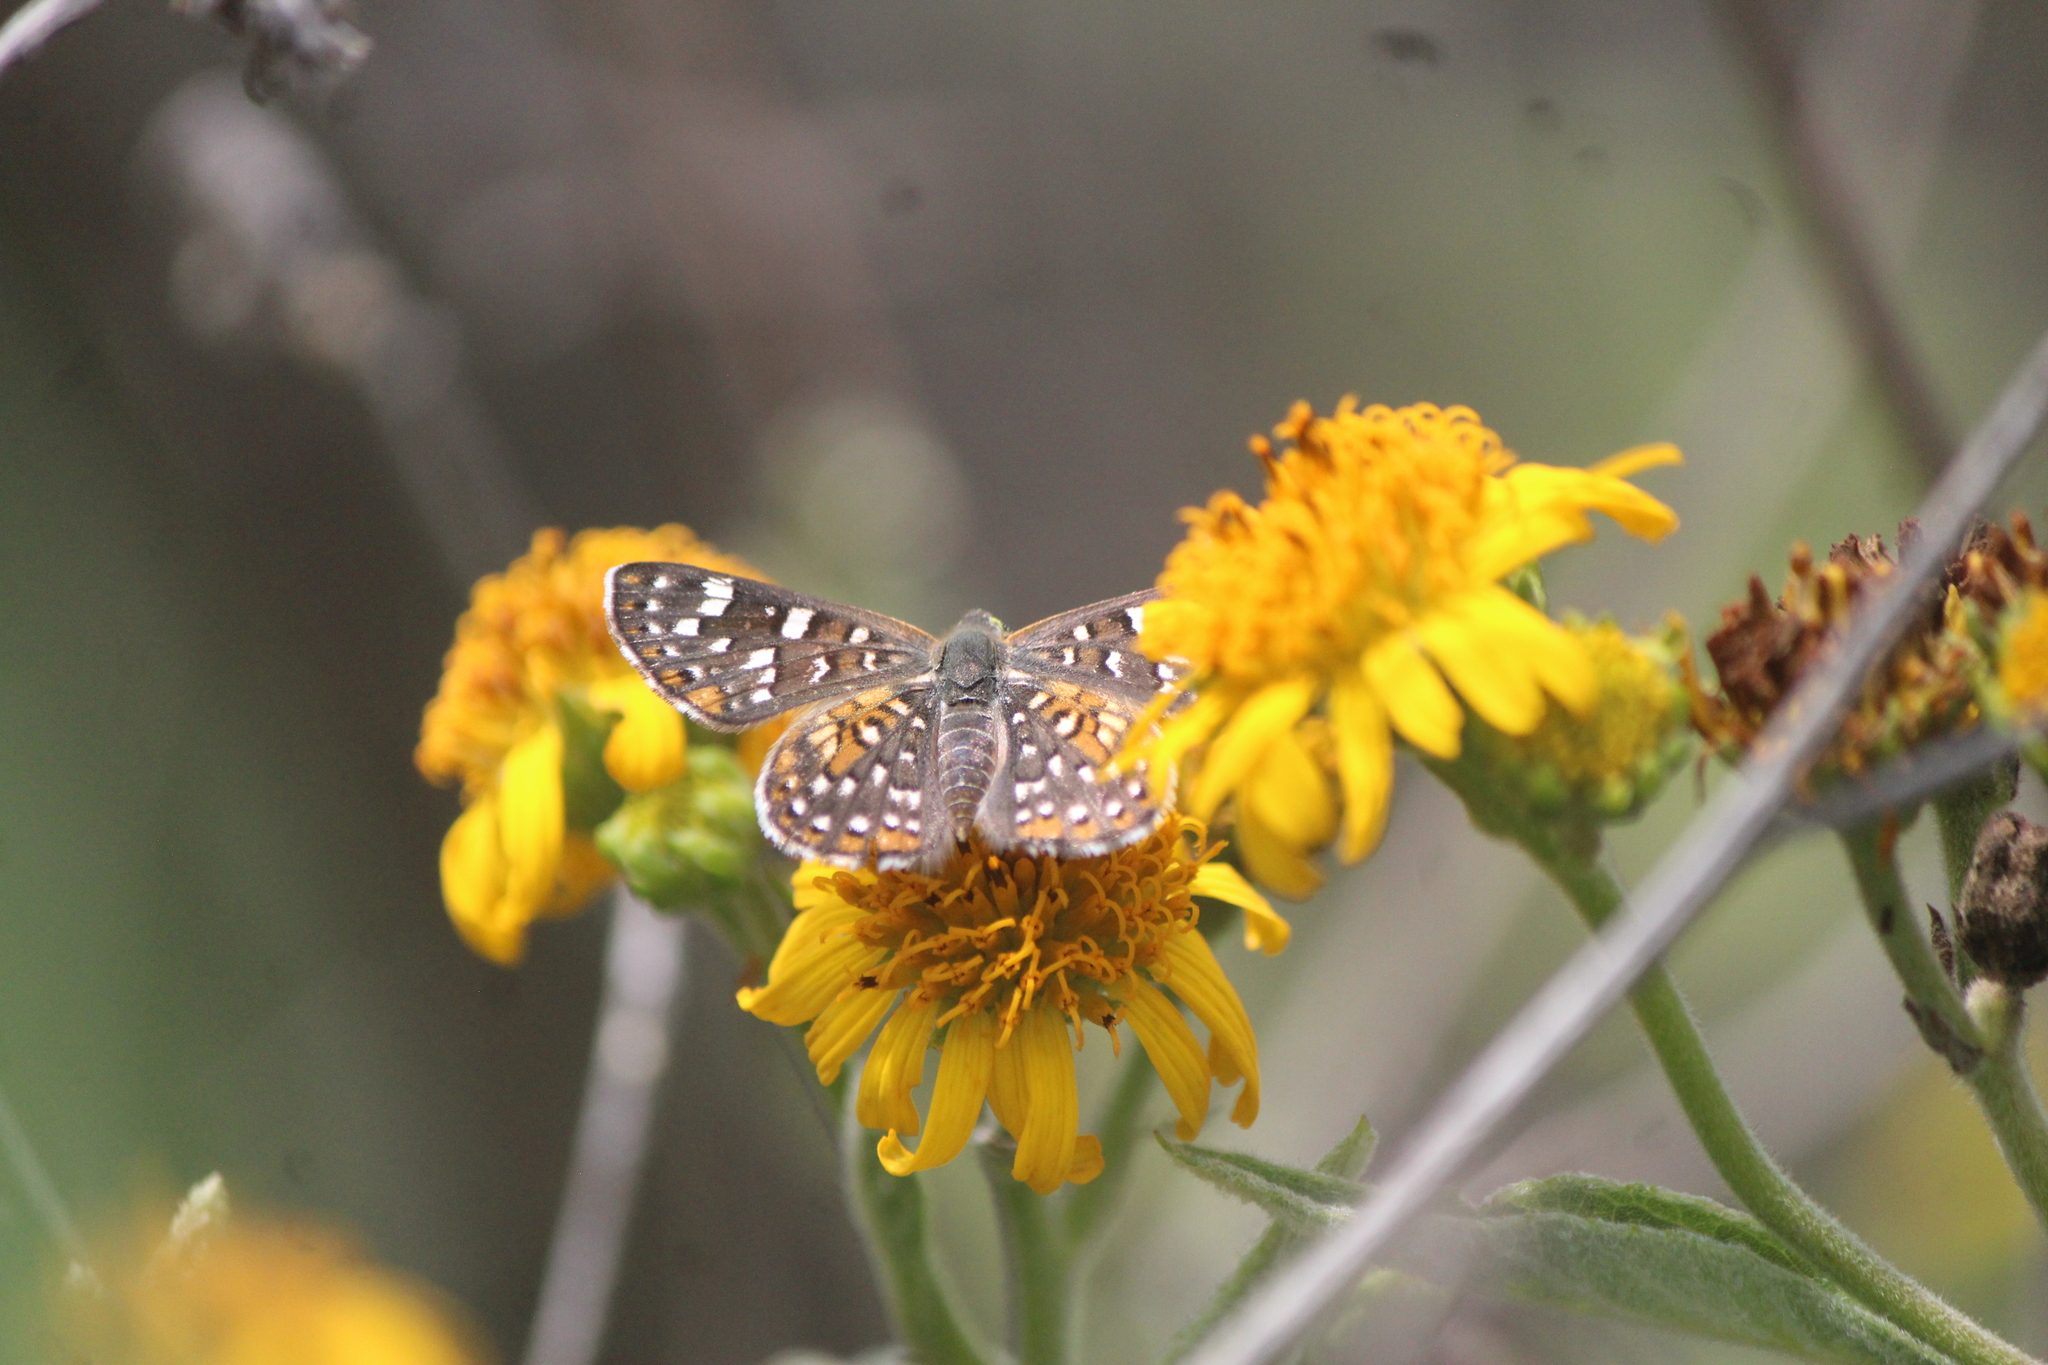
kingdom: Animalia
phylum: Arthropoda
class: Insecta
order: Lepidoptera
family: Riodinidae
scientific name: Riodinidae
